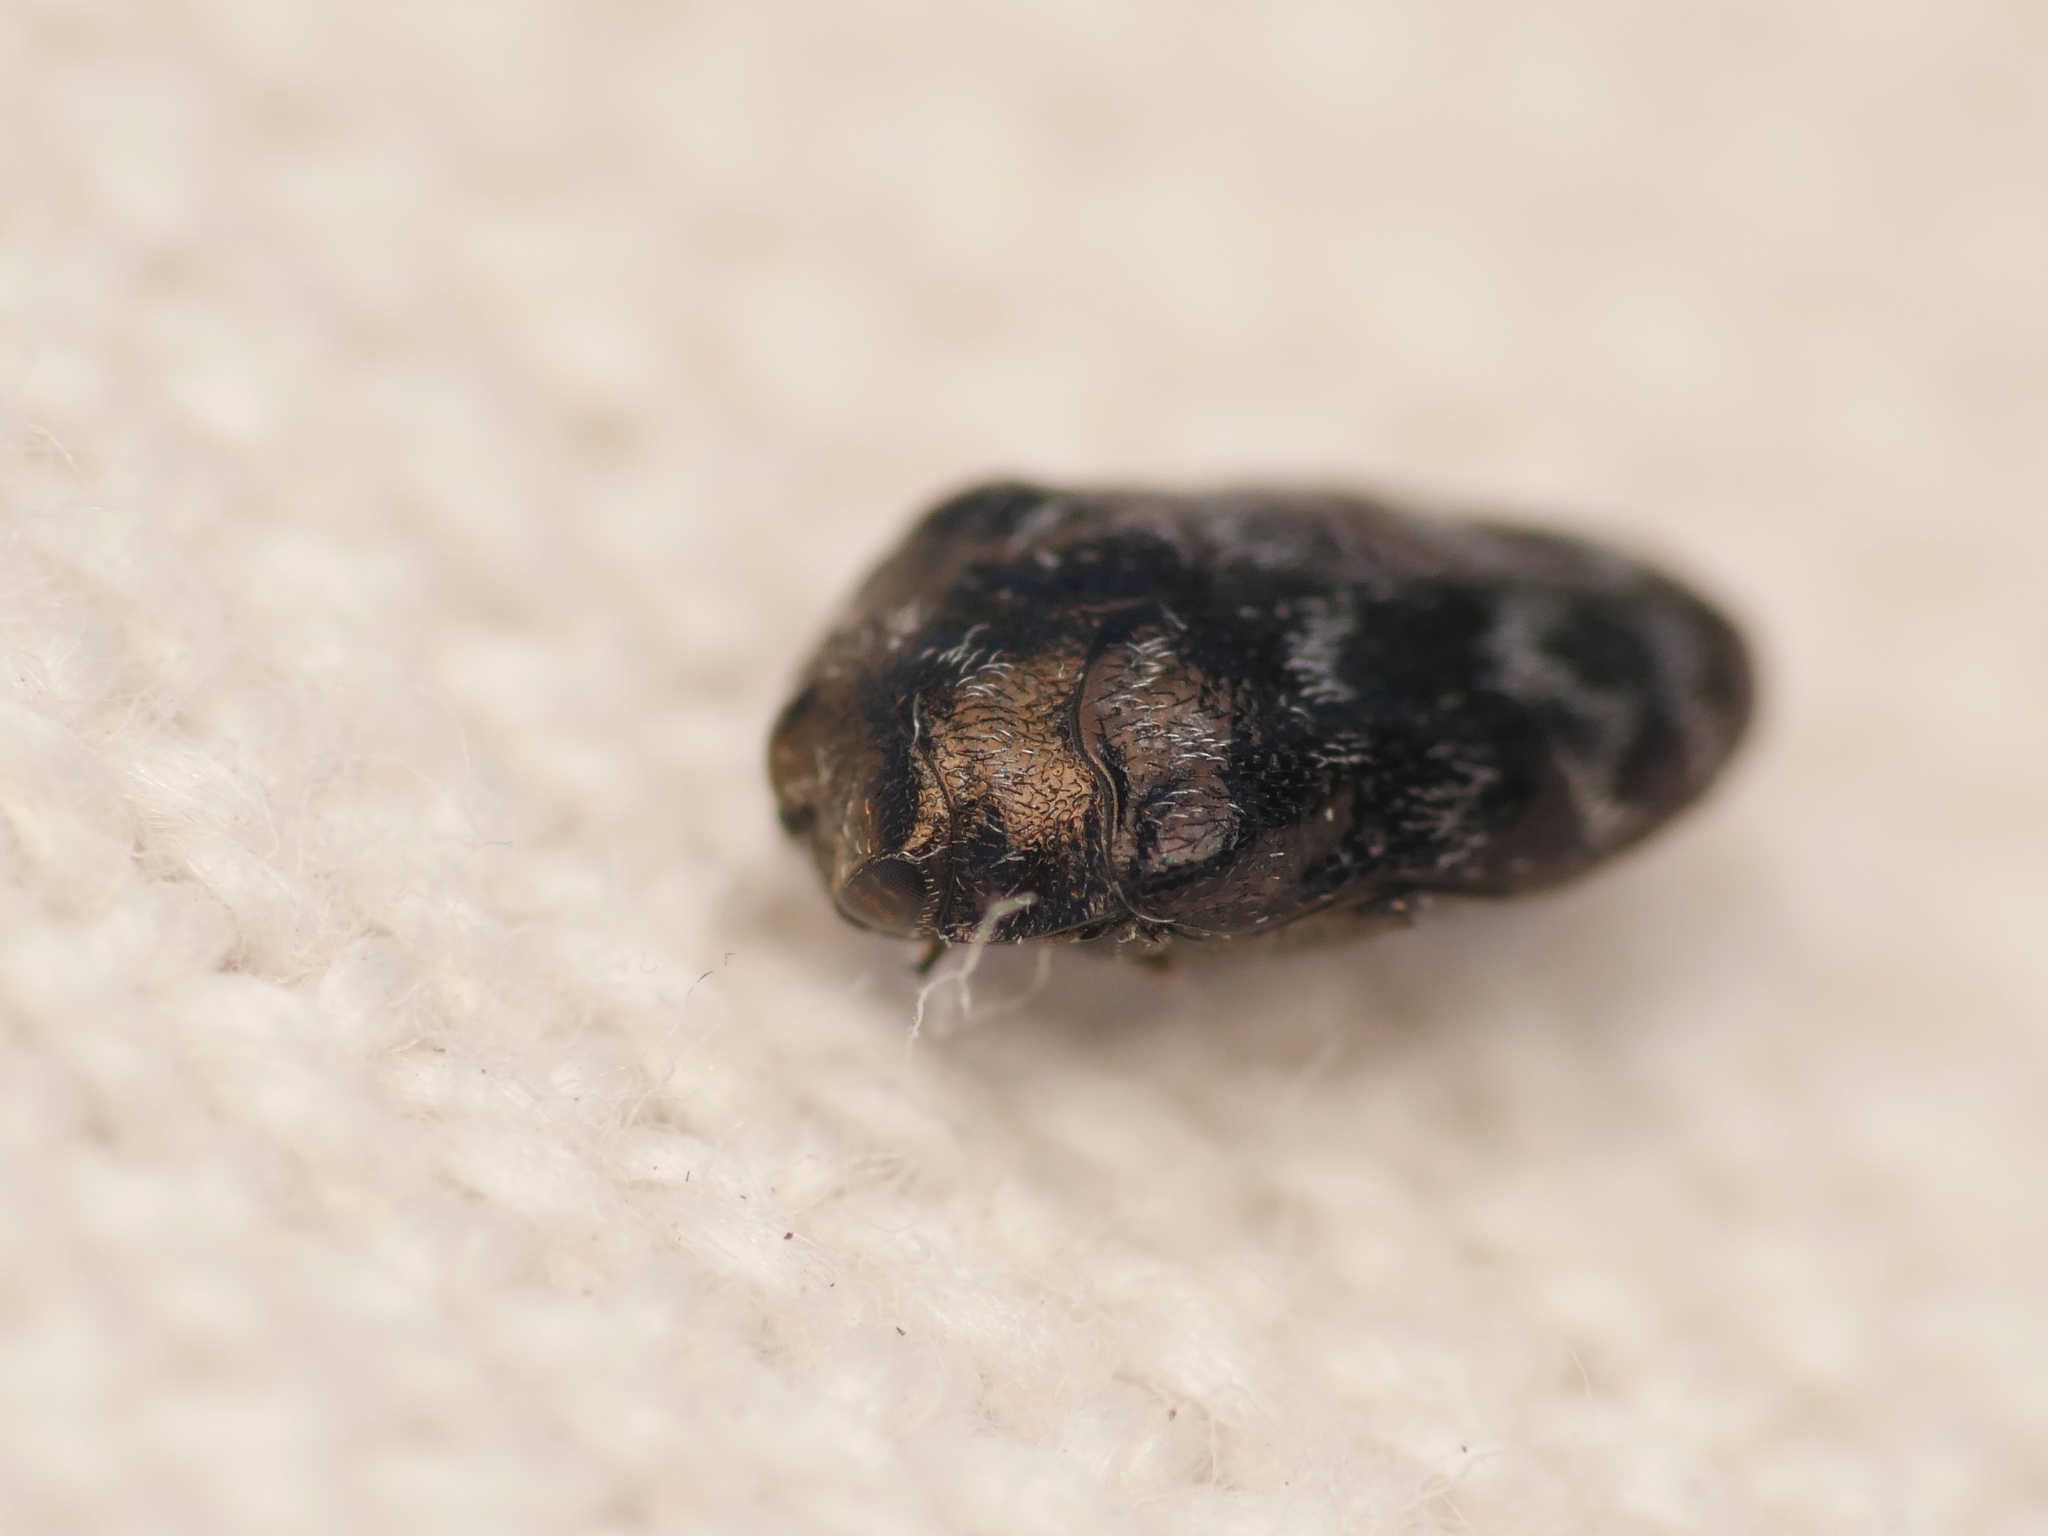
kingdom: Animalia
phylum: Arthropoda
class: Insecta
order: Coleoptera
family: Buprestidae
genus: Trachys
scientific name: Trachys minutus
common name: Metallic wood-boring beetle
